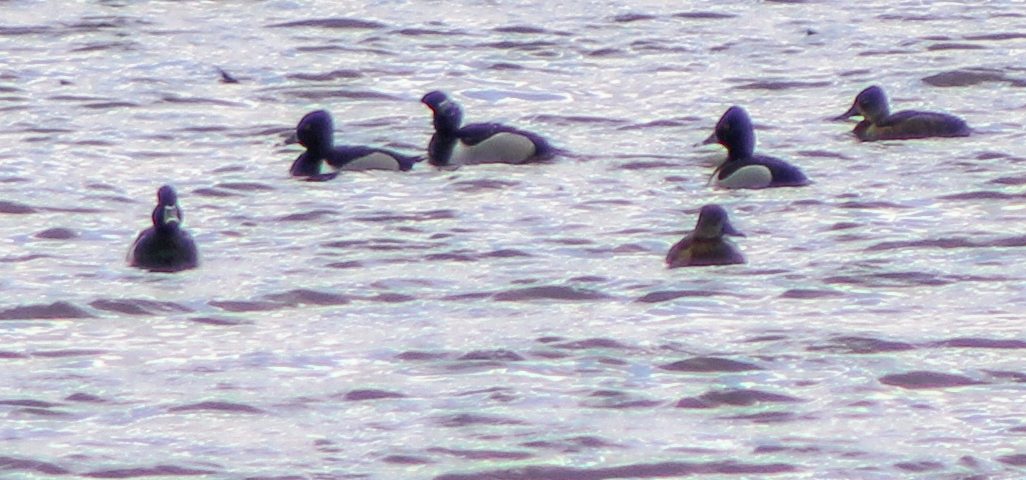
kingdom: Animalia
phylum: Chordata
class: Aves
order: Anseriformes
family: Anatidae
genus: Aythya
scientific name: Aythya collaris
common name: Ring-necked duck
